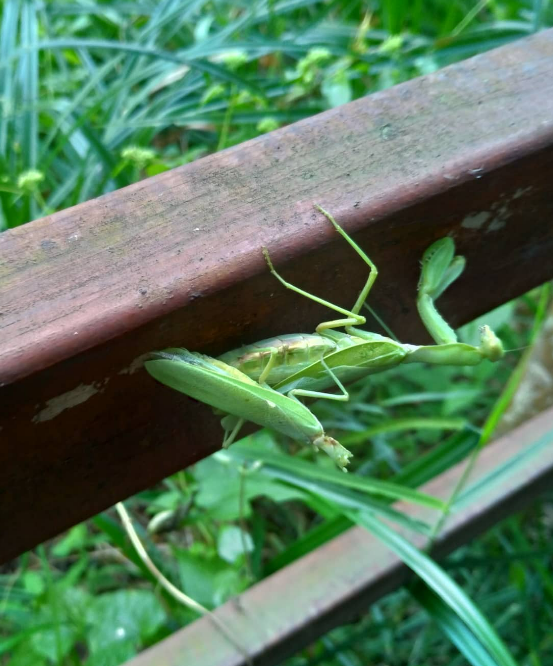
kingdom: Animalia
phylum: Arthropoda
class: Insecta
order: Mantodea
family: Mantidae
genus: Hierodula
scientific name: Hierodula patellifera
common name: Asian mantis
